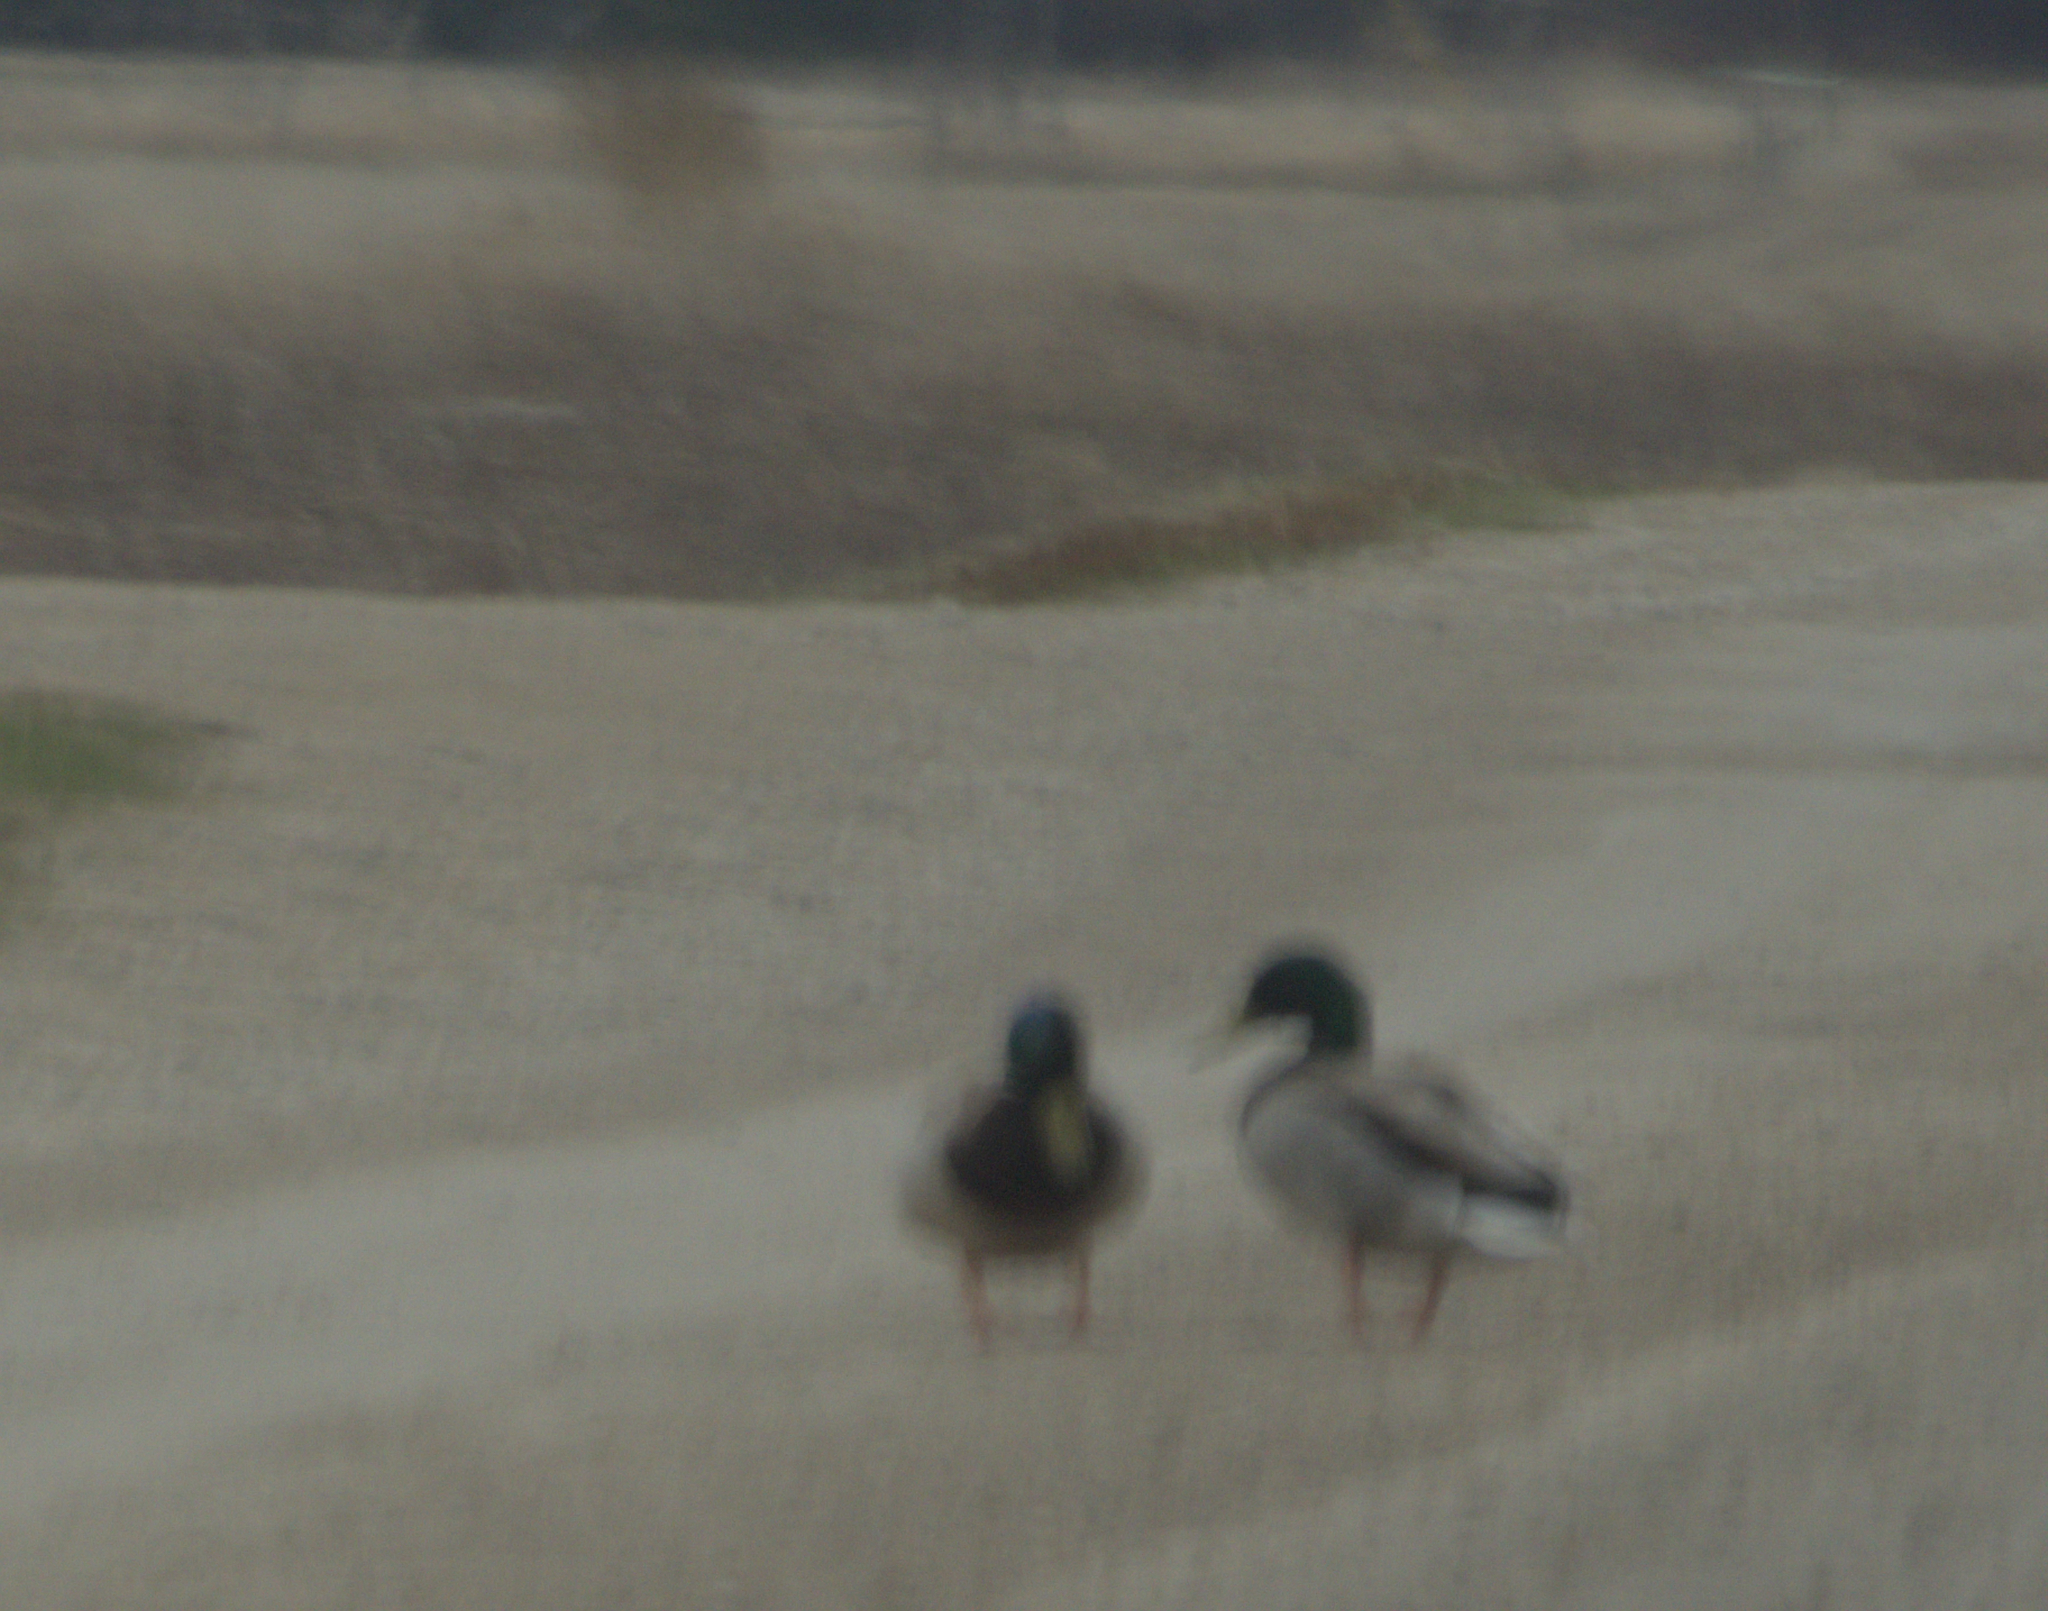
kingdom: Animalia
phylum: Chordata
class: Aves
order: Anseriformes
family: Anatidae
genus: Anas
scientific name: Anas platyrhynchos
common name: Mallard
